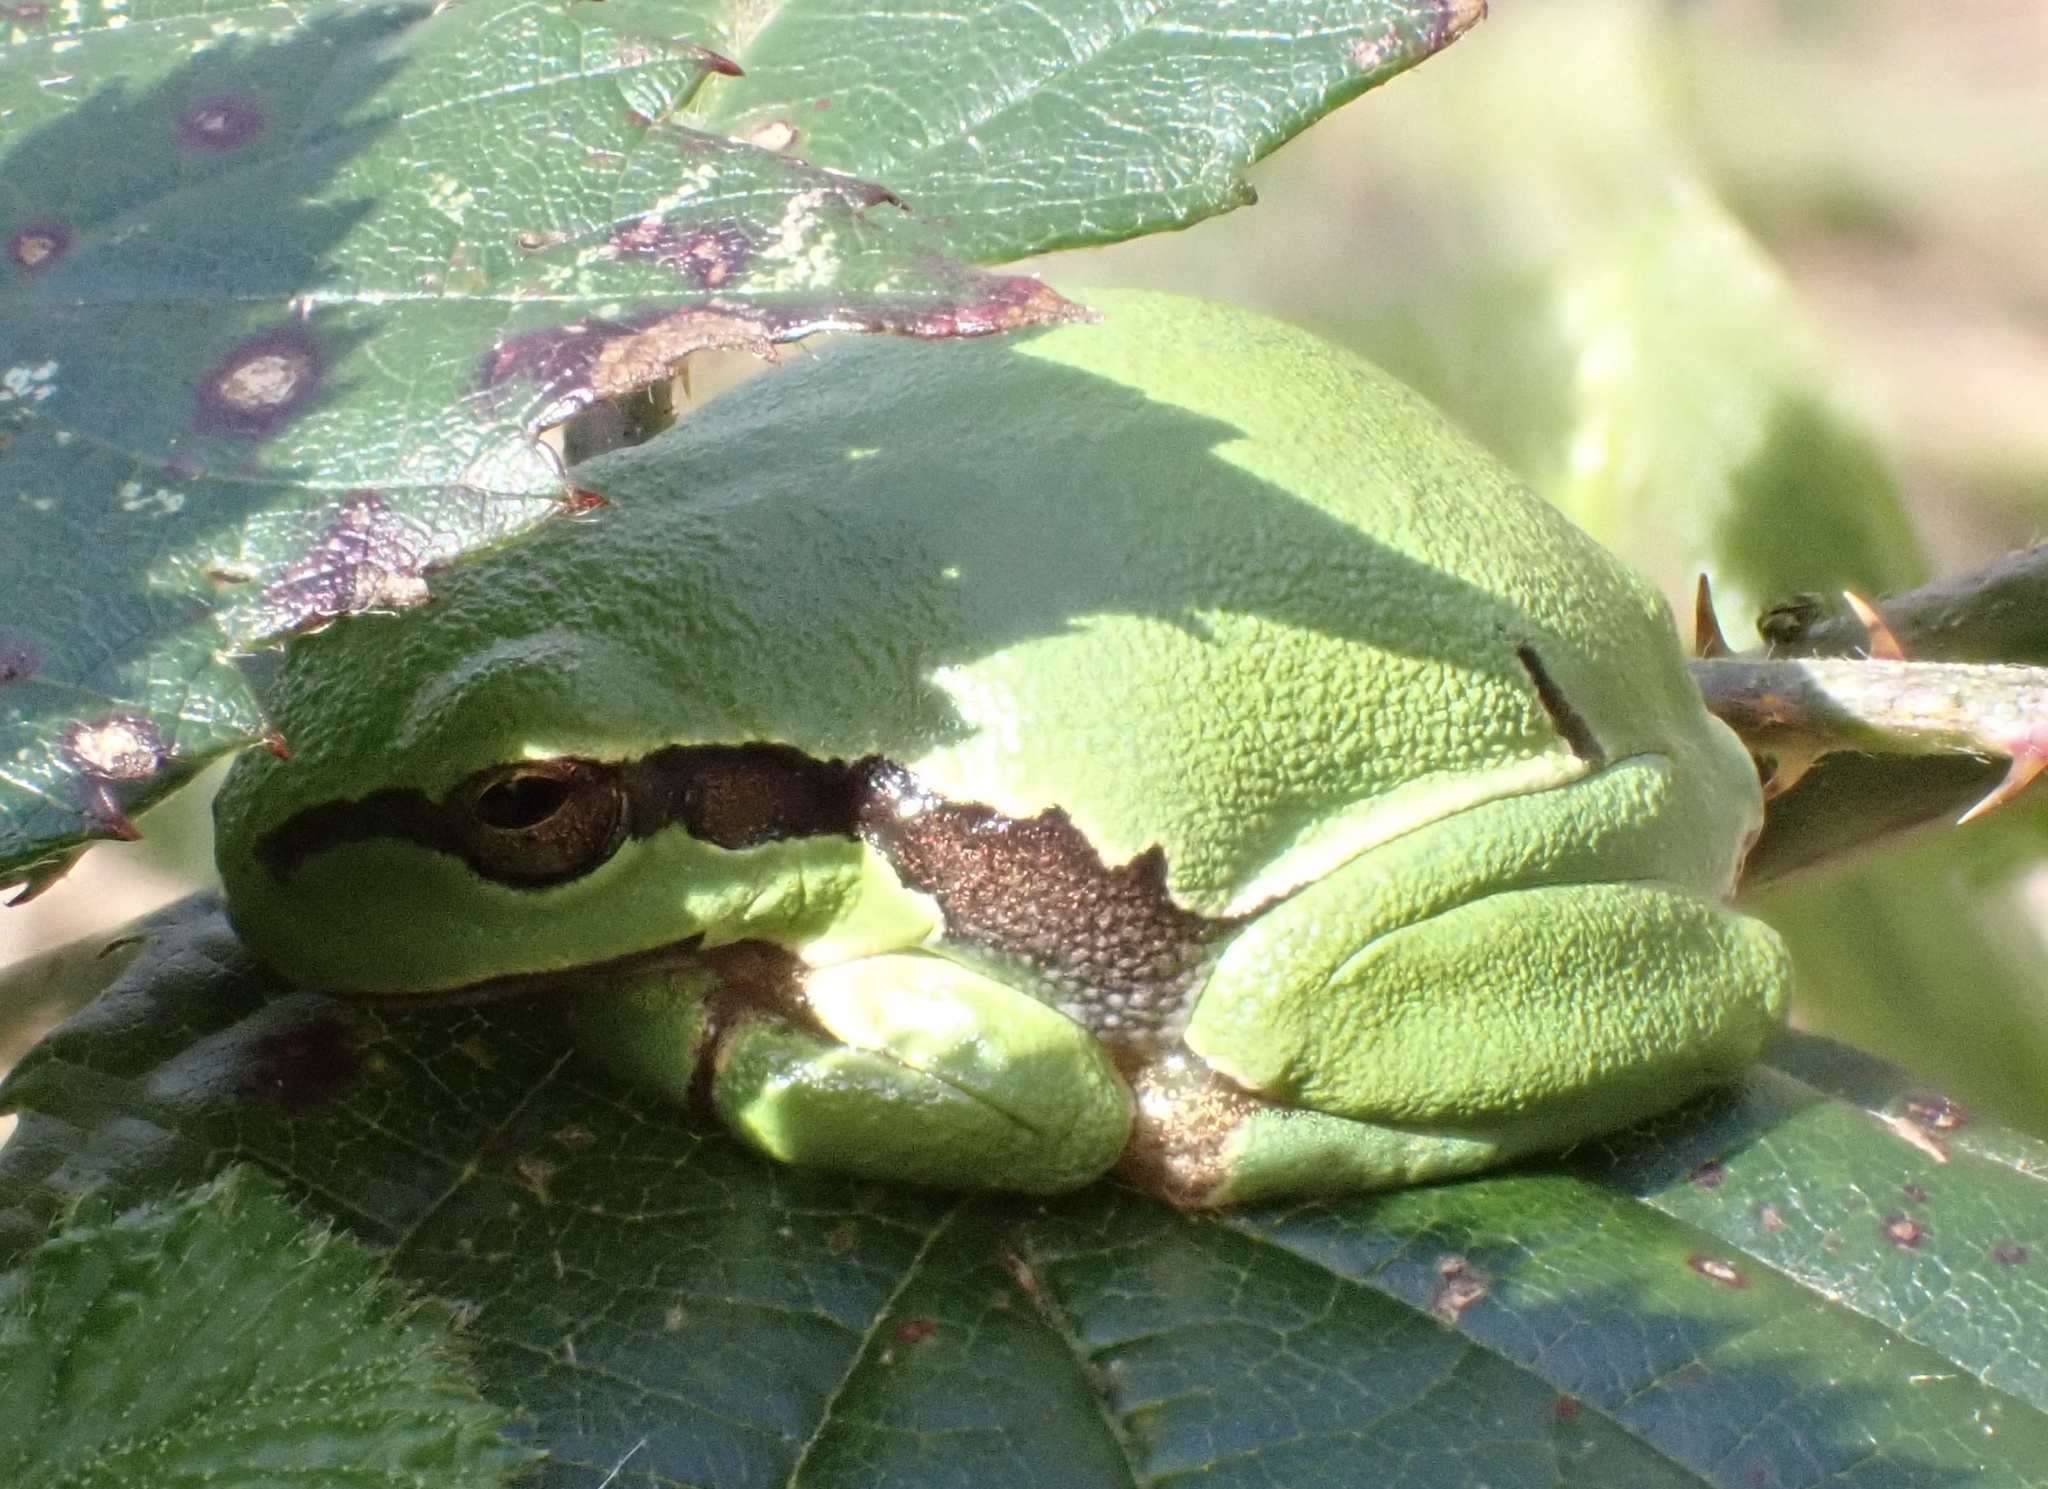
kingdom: Animalia
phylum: Chordata
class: Amphibia
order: Anura
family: Hylidae
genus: Hyla
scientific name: Hyla arborea
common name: Common tree frog
